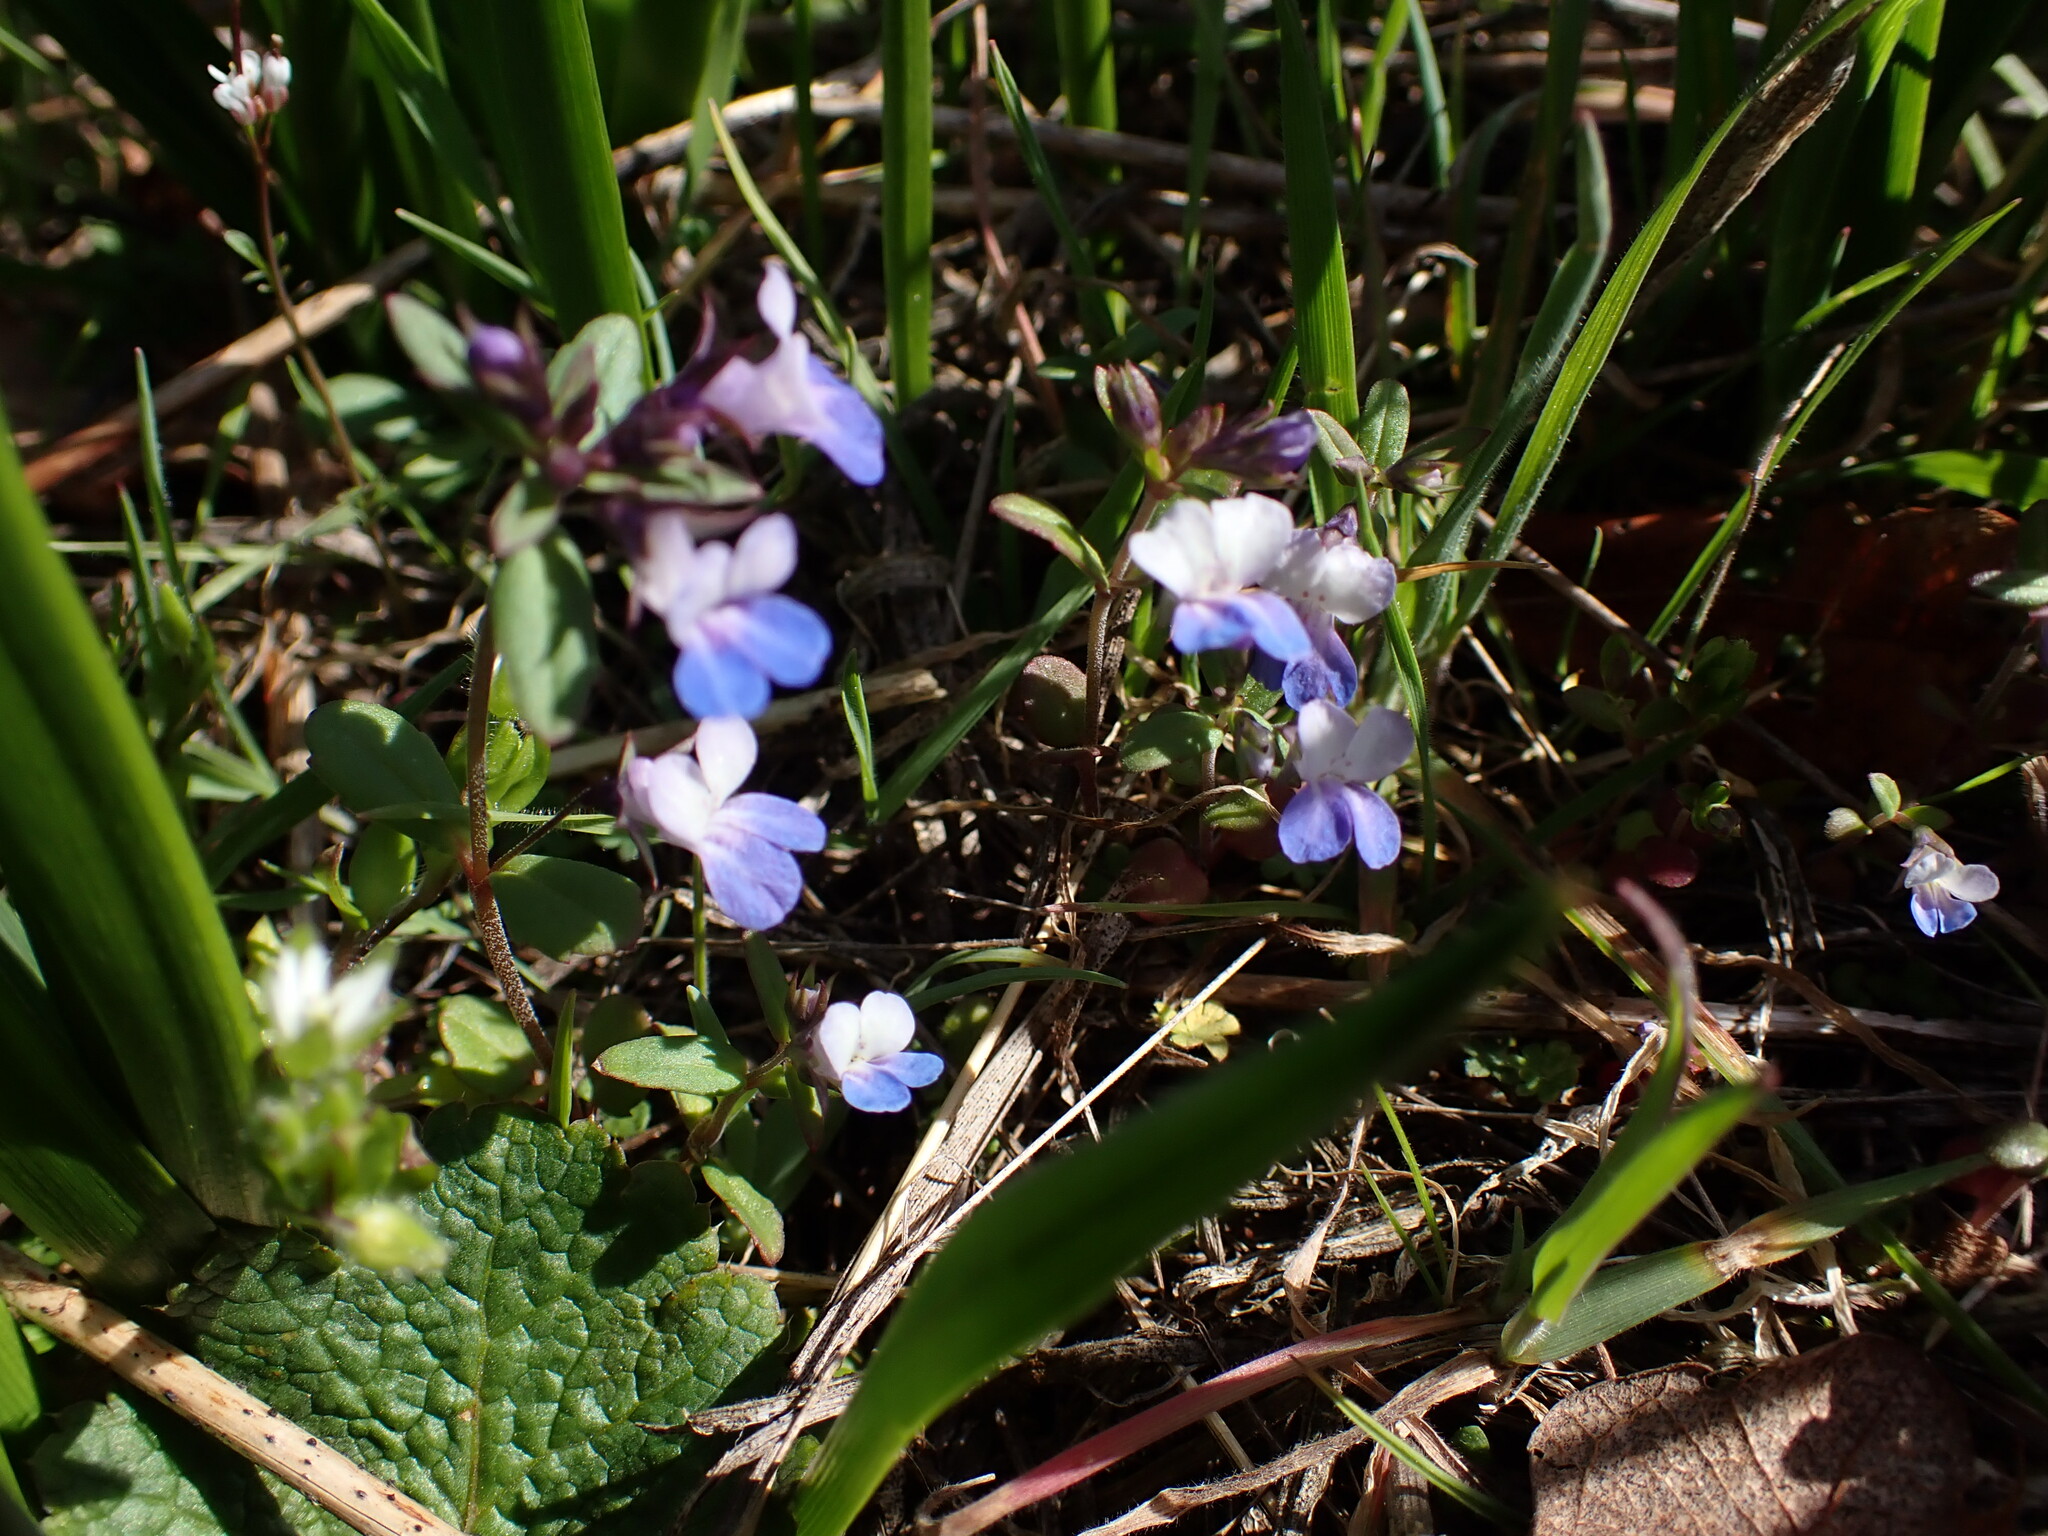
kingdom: Plantae
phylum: Tracheophyta
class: Magnoliopsida
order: Lamiales
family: Plantaginaceae
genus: Collinsia
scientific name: Collinsia parviflora
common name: Blue-lips
